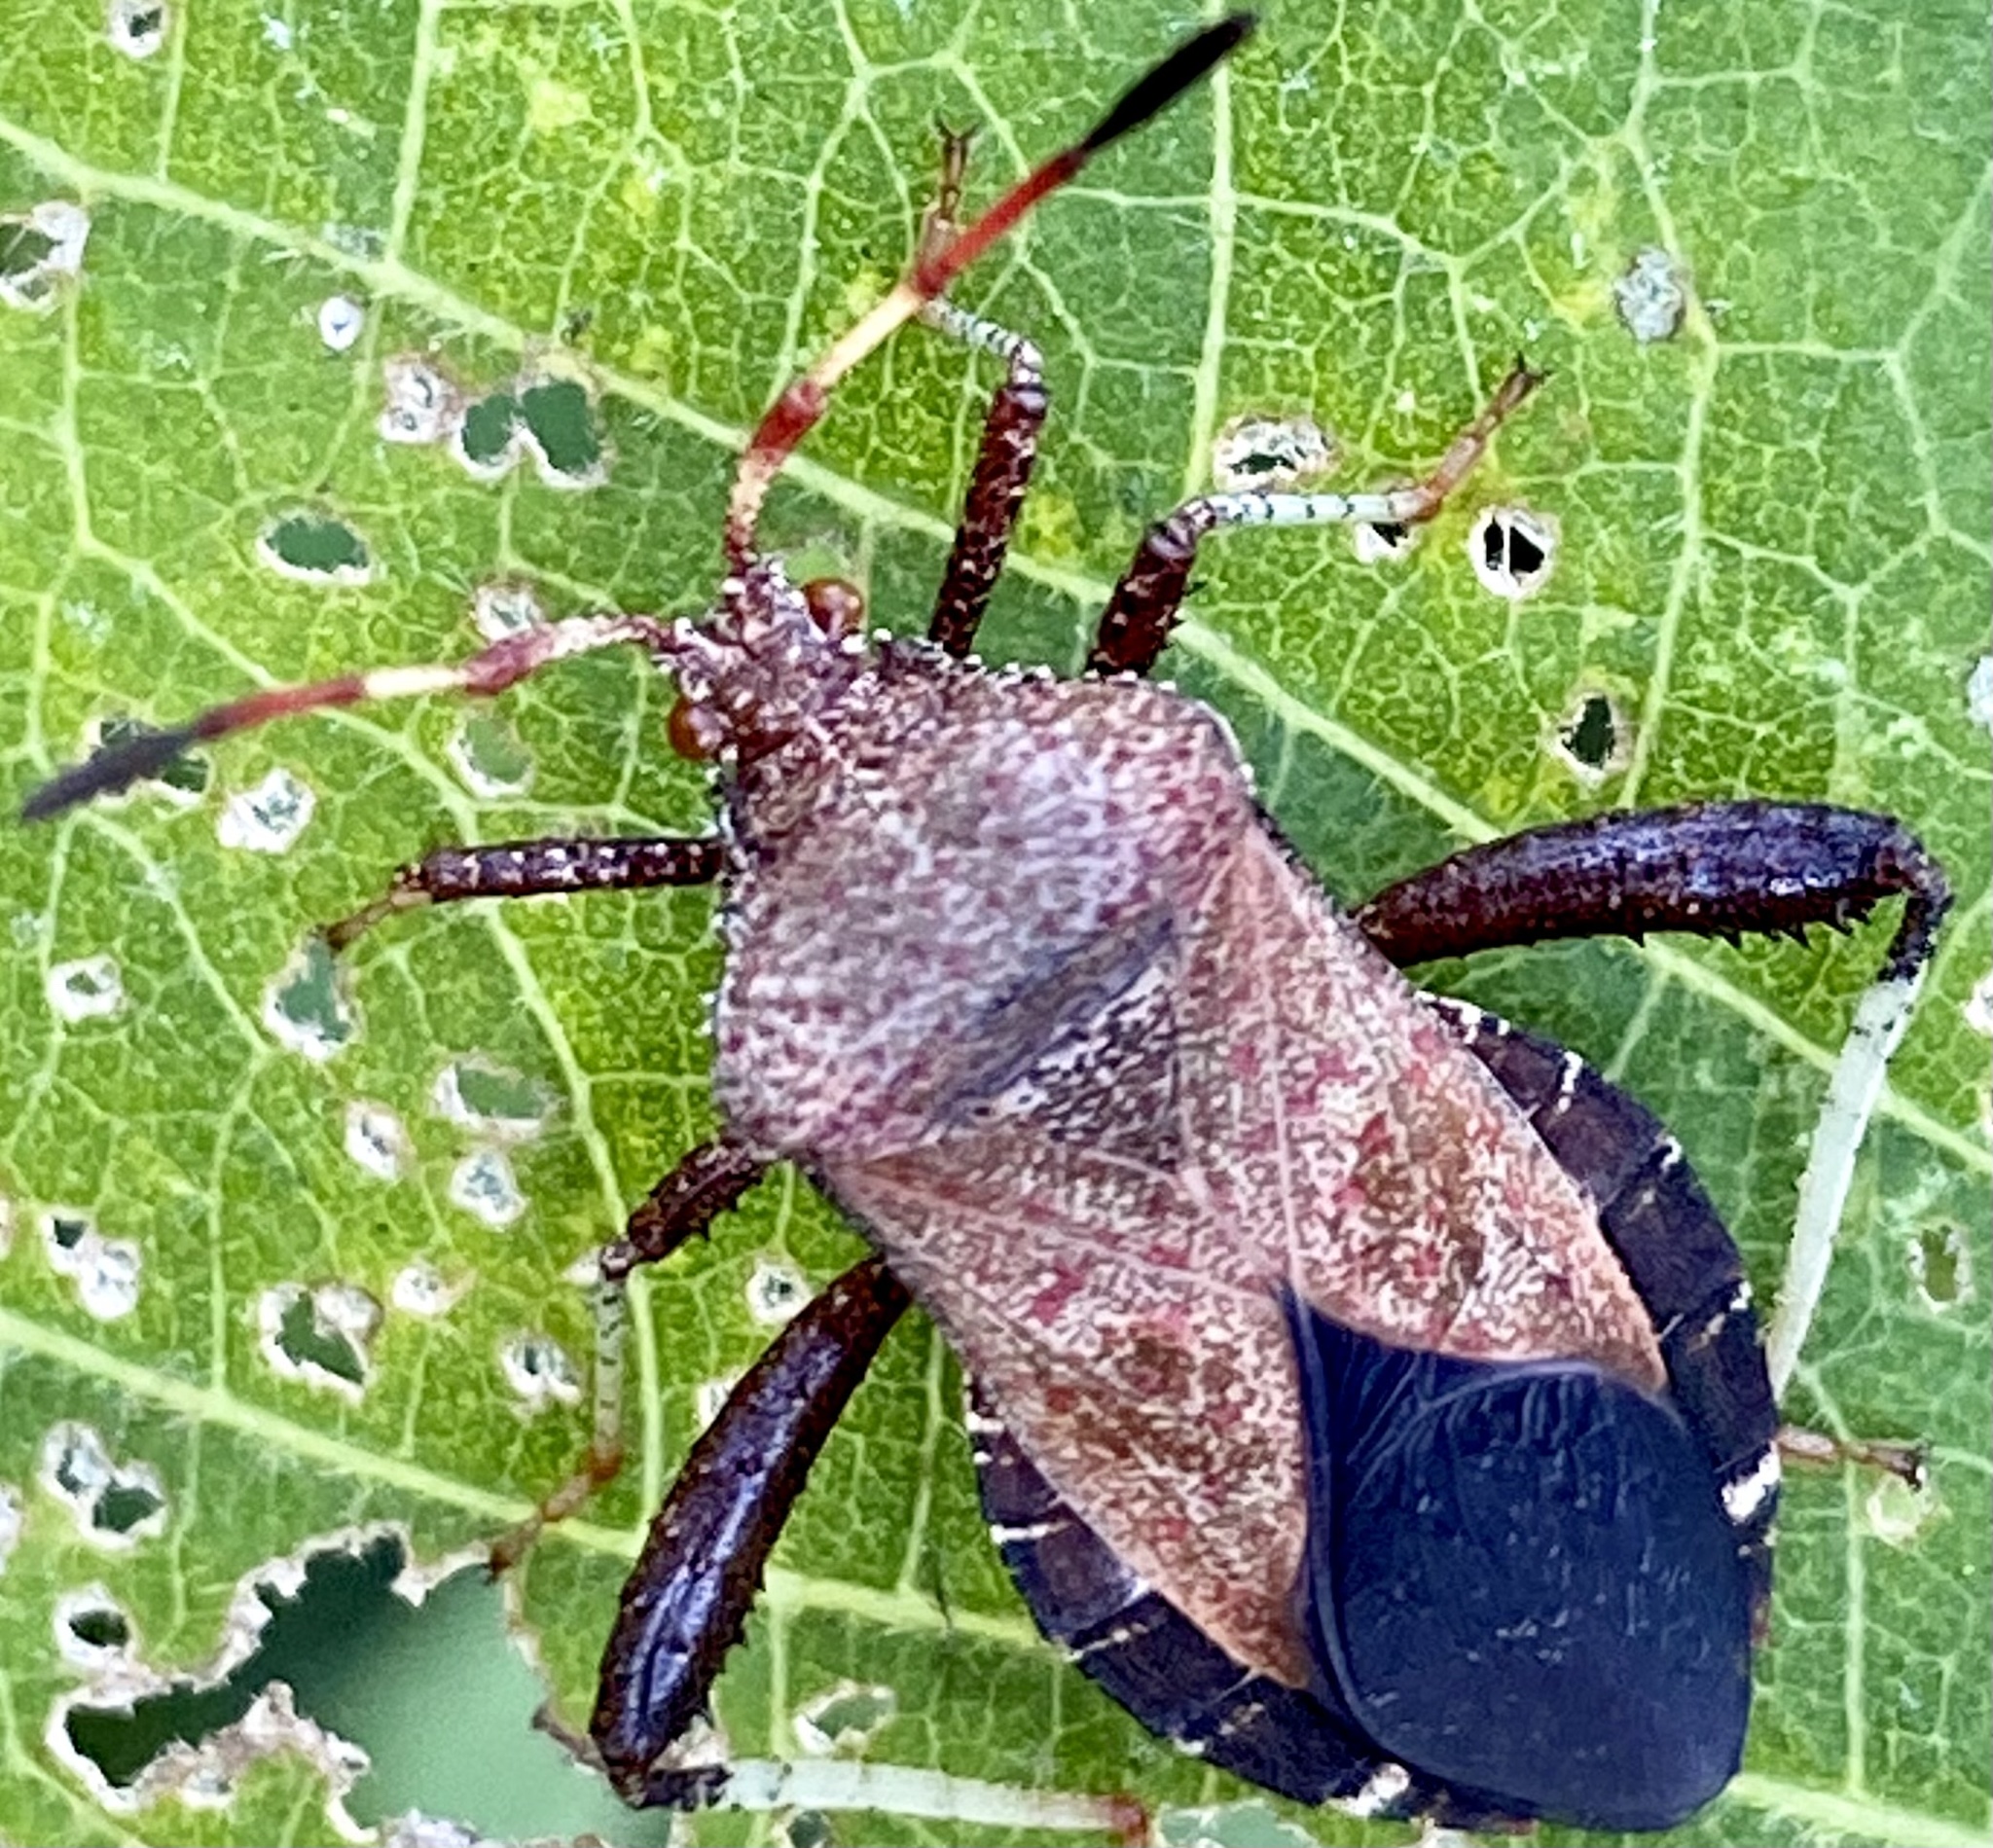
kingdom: Animalia
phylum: Arthropoda
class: Insecta
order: Hemiptera
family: Coreidae
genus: Euthochtha
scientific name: Euthochtha galeator
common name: Helmeted squash bug
